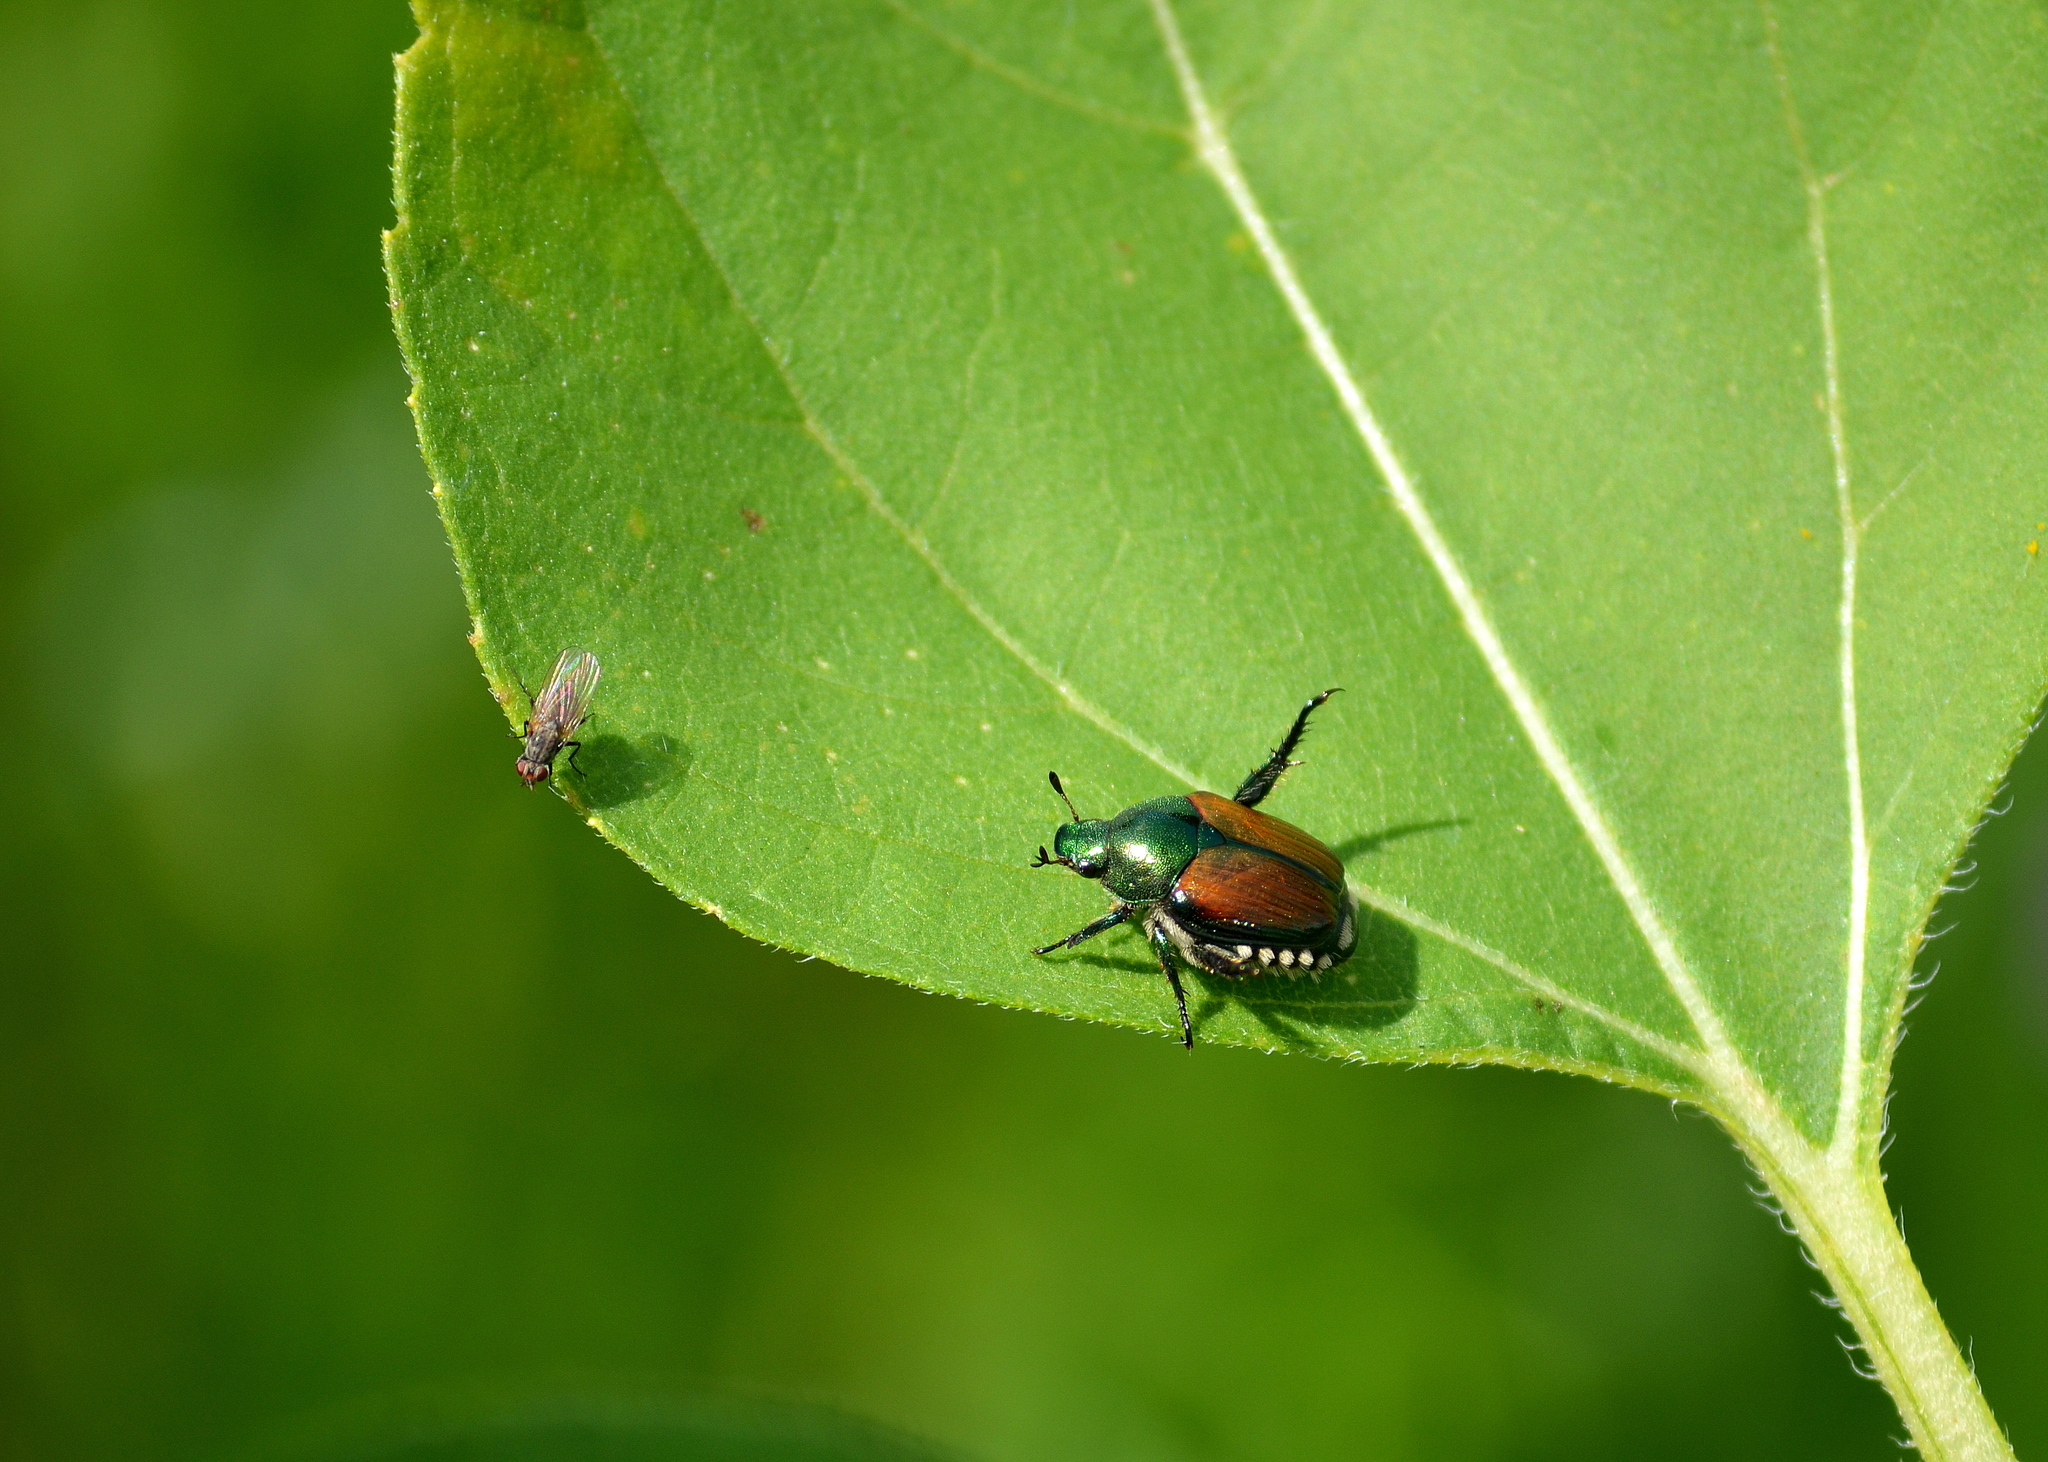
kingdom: Animalia
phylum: Arthropoda
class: Insecta
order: Coleoptera
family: Scarabaeidae
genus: Popillia
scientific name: Popillia japonica
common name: Japanese beetle
